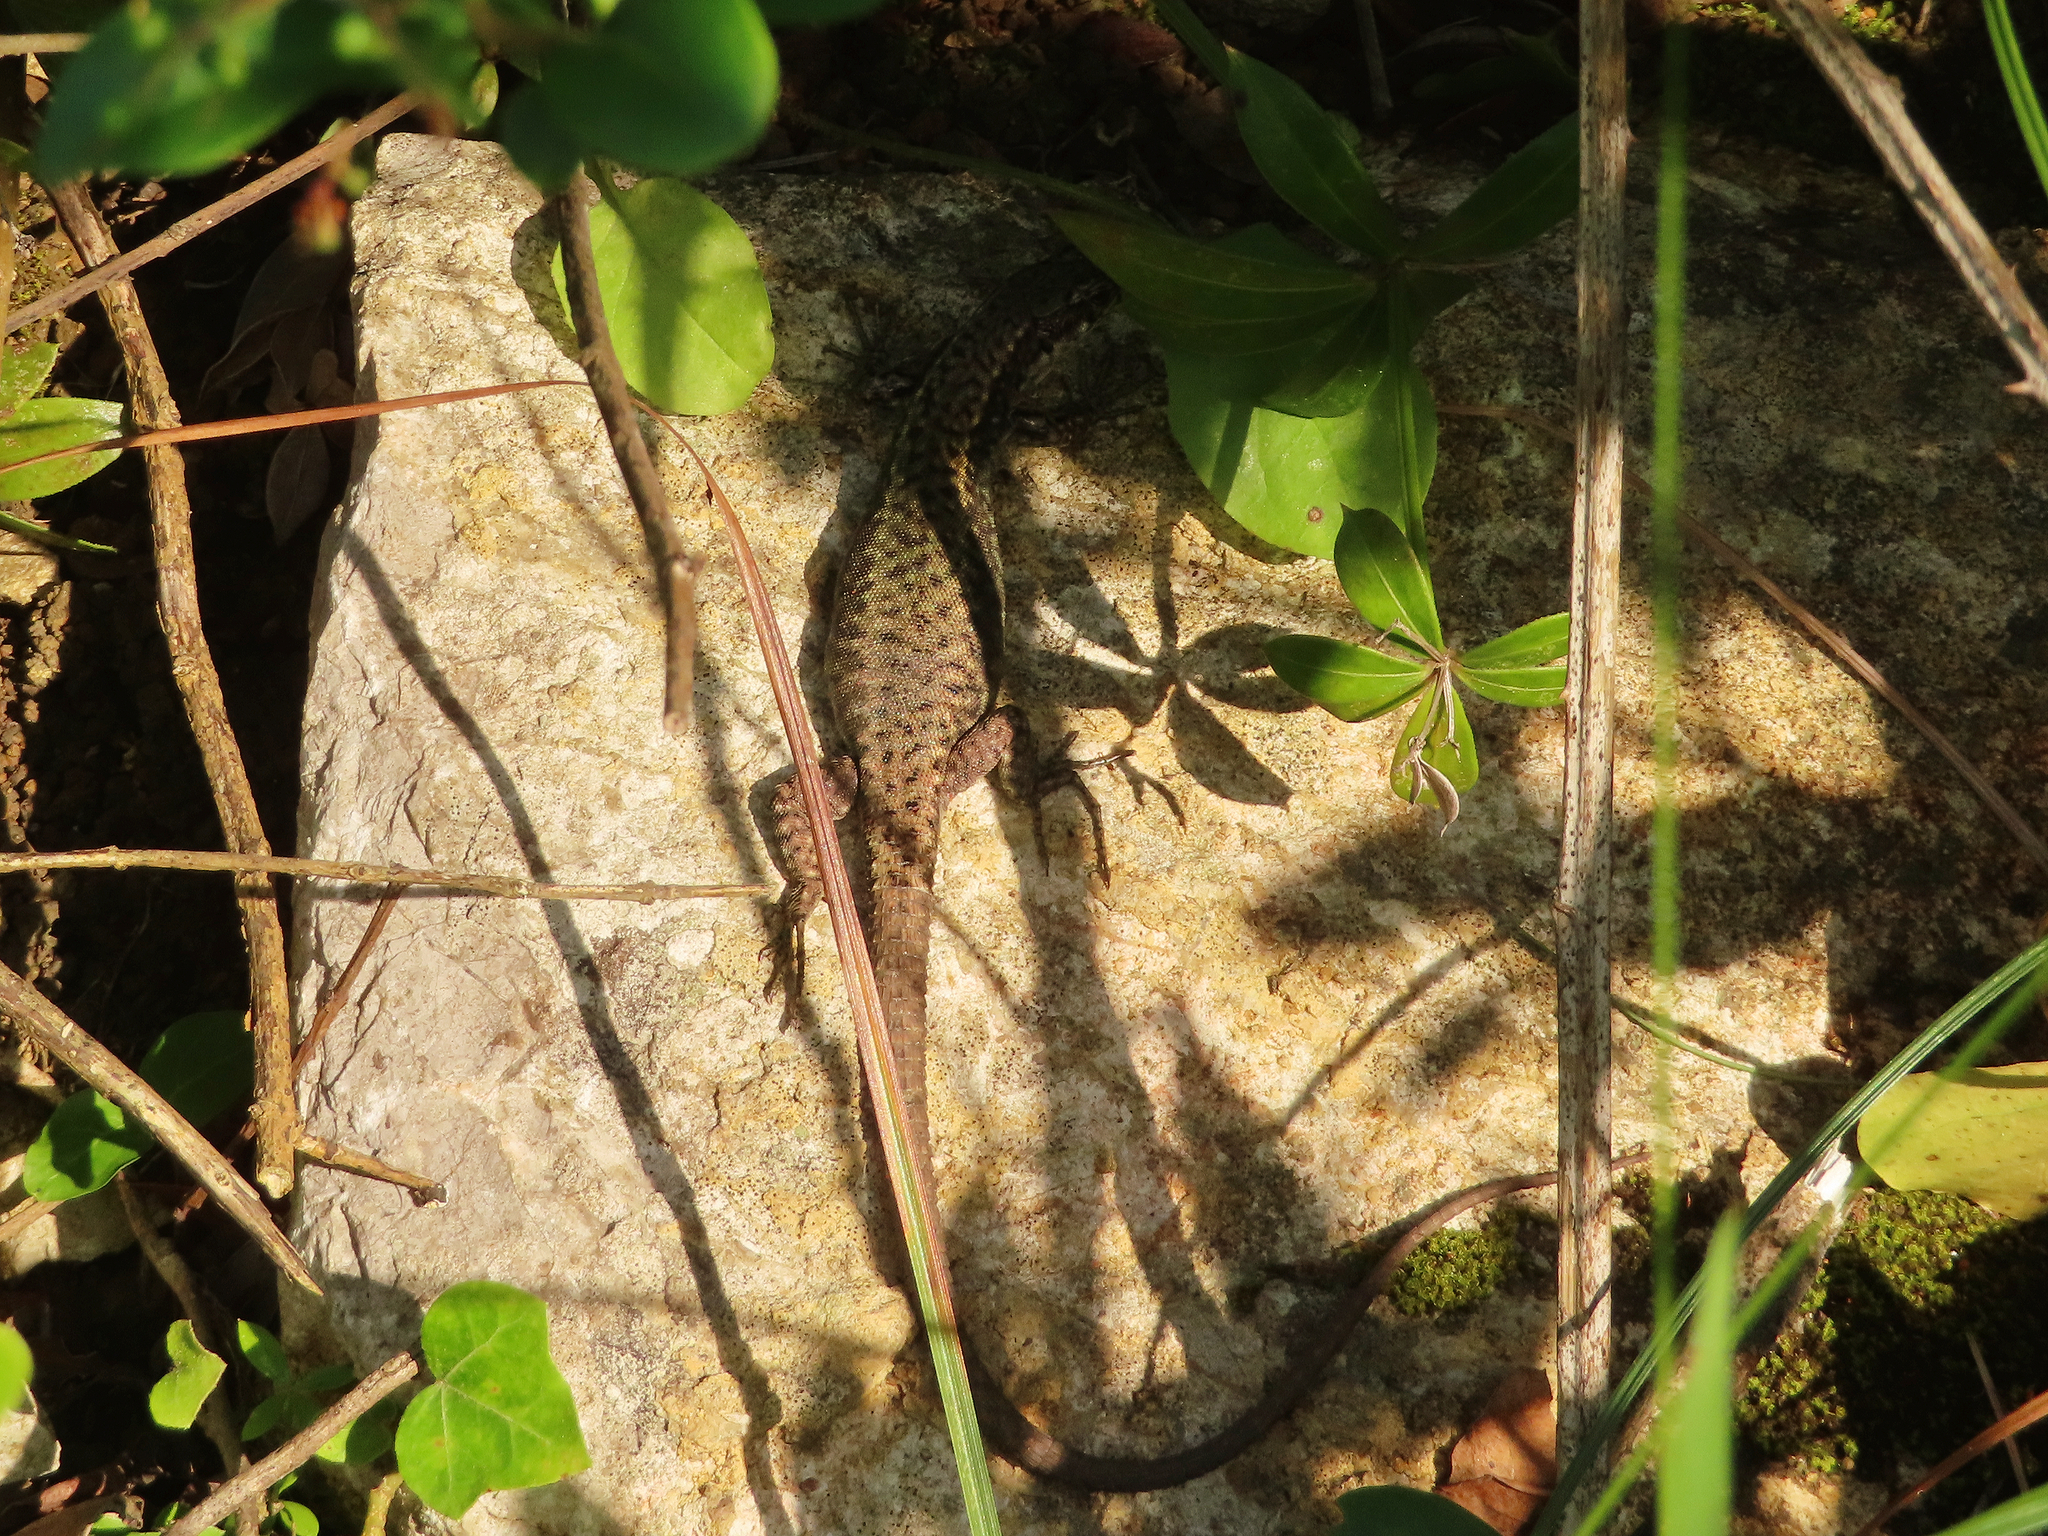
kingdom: Animalia
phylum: Chordata
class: Squamata
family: Lacertidae
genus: Darevskia
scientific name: Darevskia bithynica
